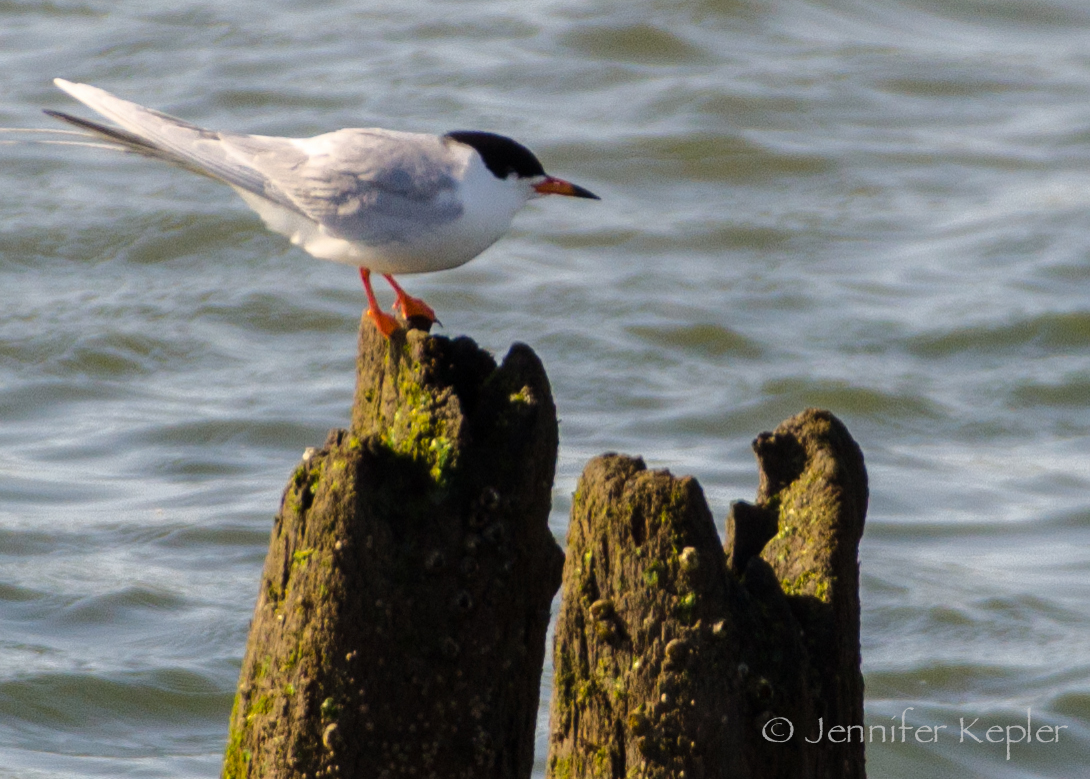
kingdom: Animalia
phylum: Chordata
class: Aves
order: Charadriiformes
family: Laridae
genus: Sterna
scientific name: Sterna forsteri
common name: Forster's tern
